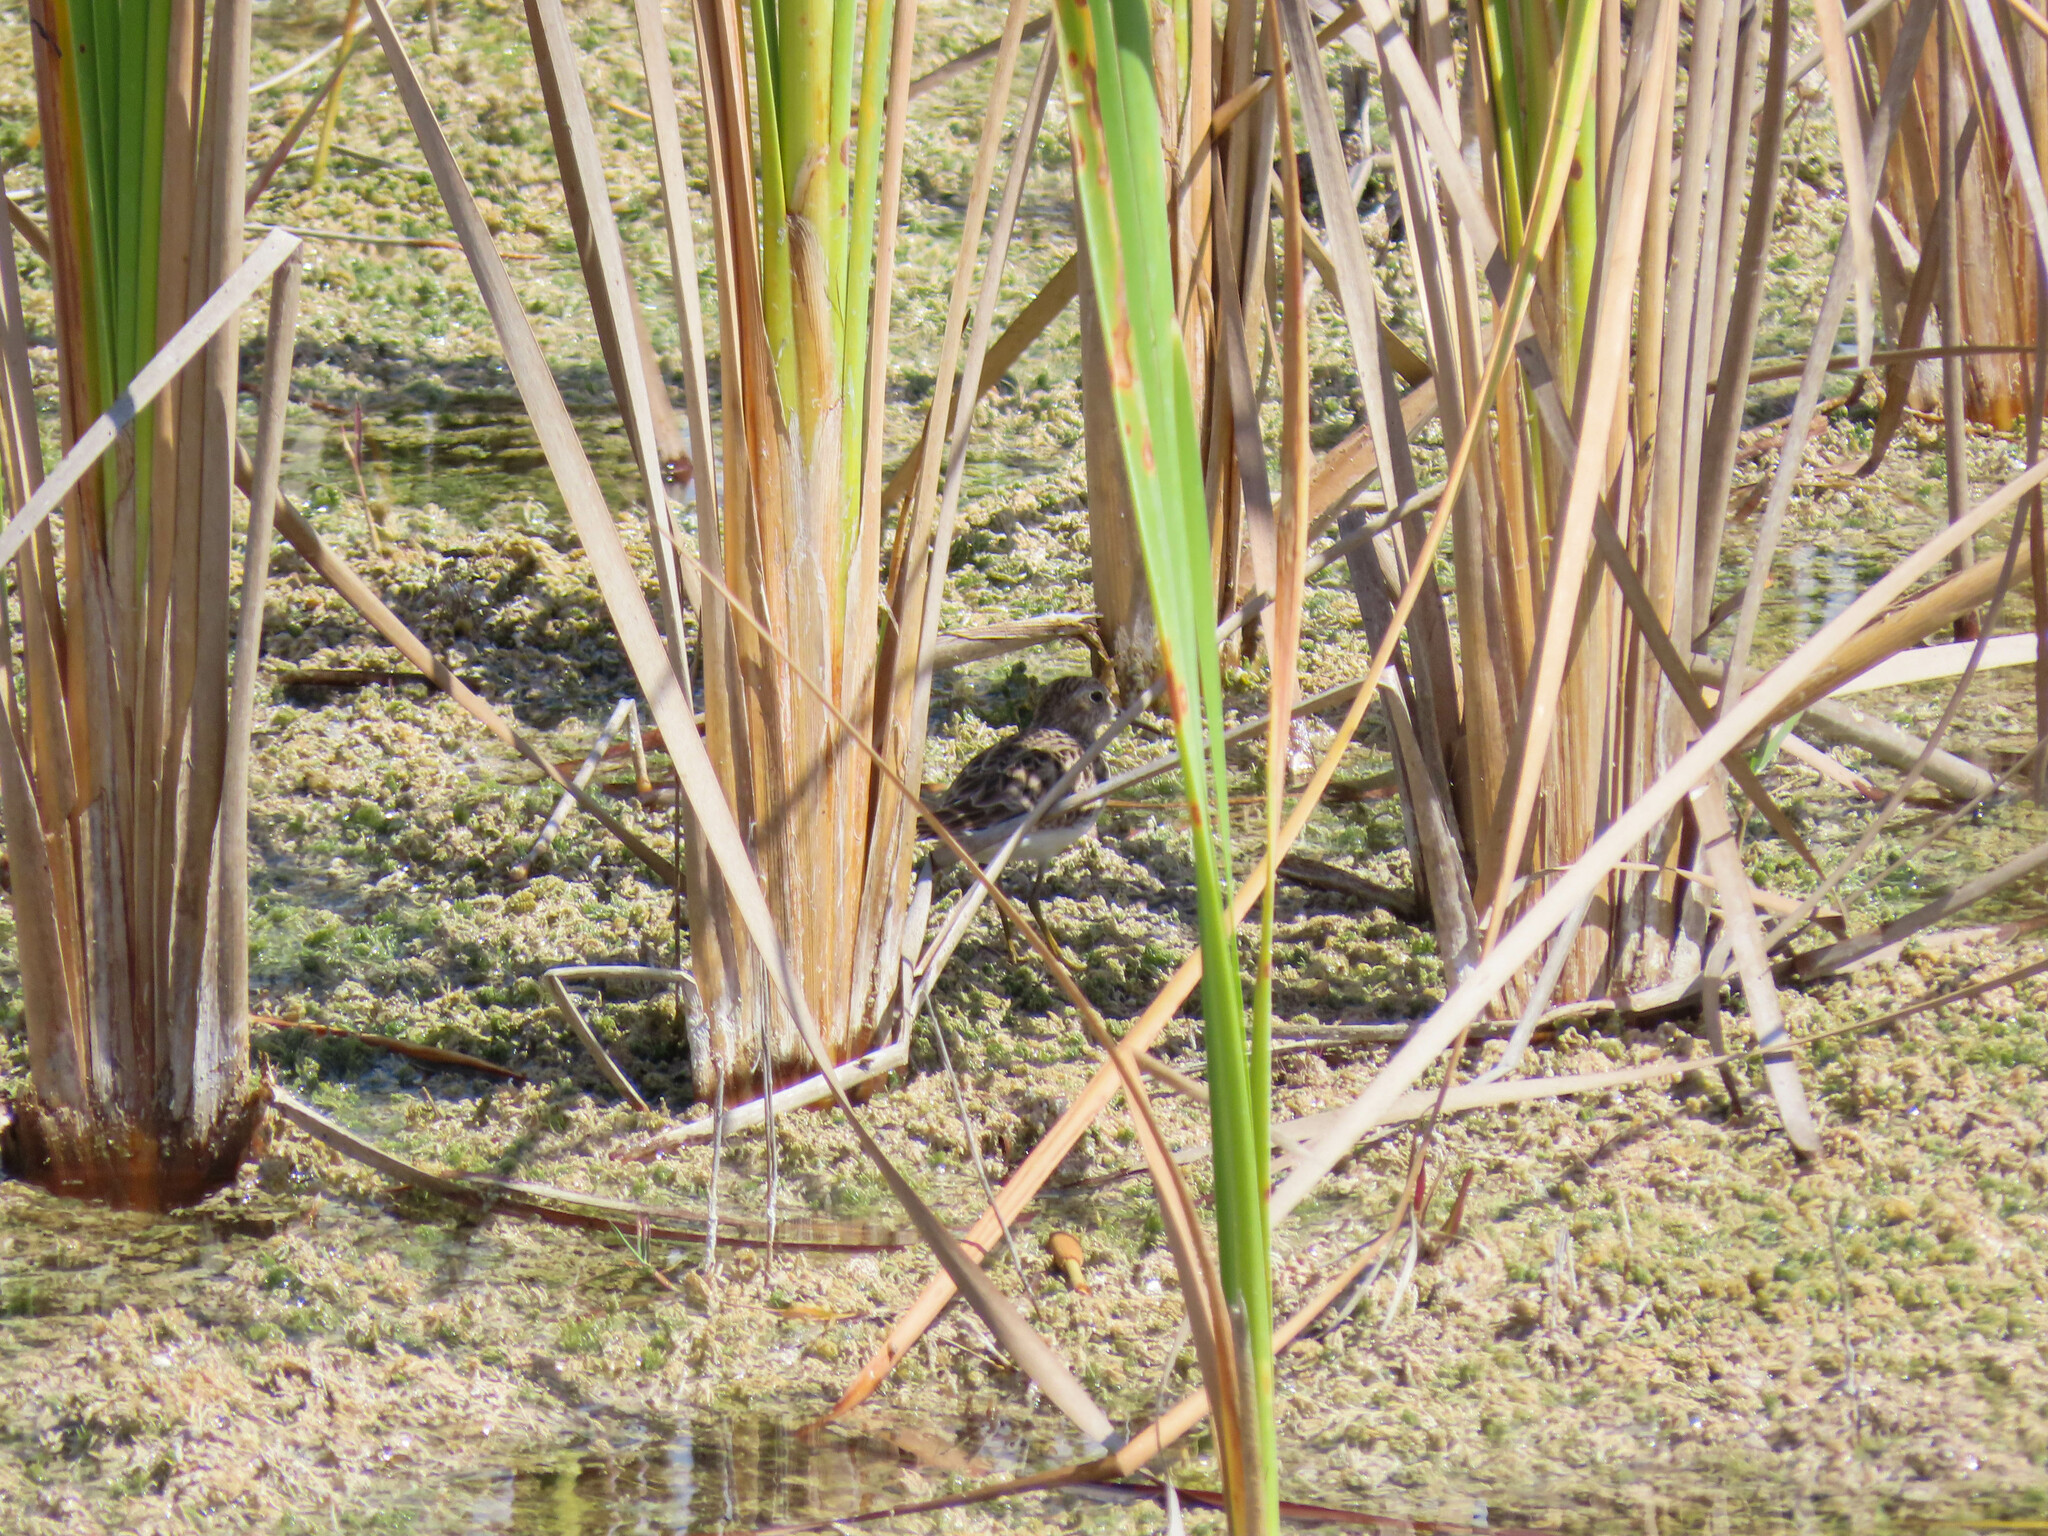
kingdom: Animalia
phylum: Chordata
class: Aves
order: Charadriiformes
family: Scolopacidae
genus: Calidris
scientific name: Calidris minutilla
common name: Least sandpiper
